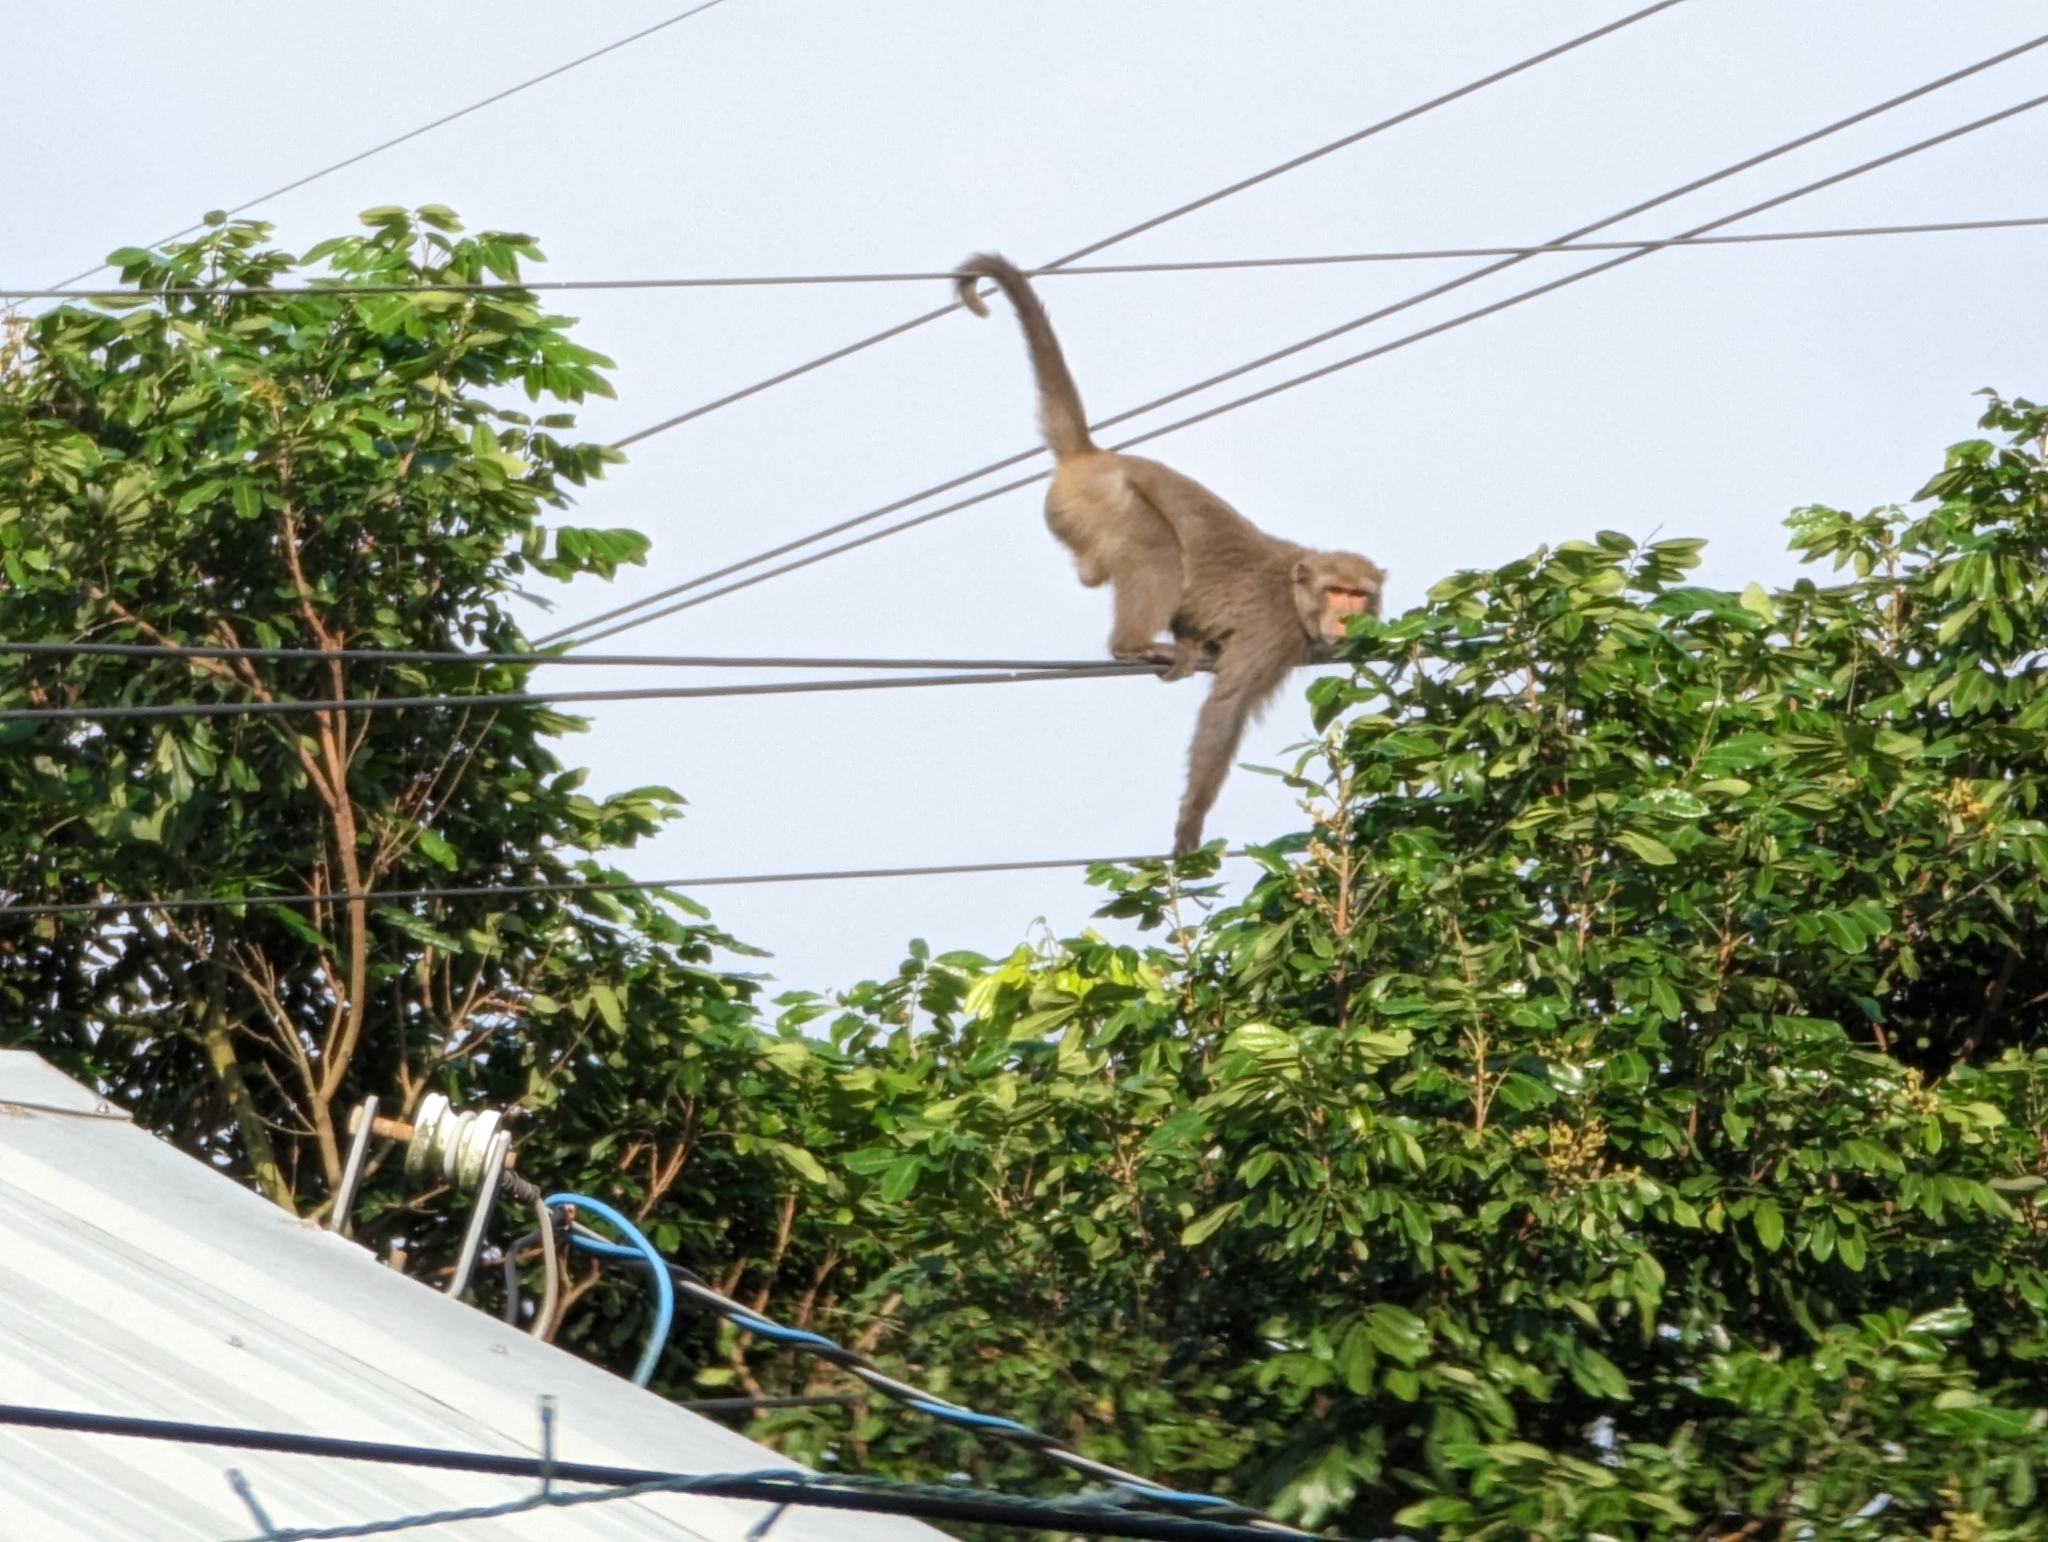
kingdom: Animalia
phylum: Chordata
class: Mammalia
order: Primates
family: Cercopithecidae
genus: Macaca
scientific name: Macaca cyclopis
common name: Formosan rock macaque
